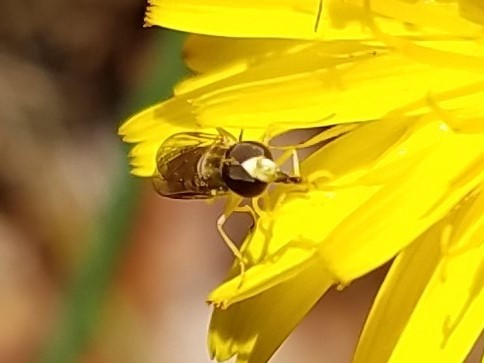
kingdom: Animalia
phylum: Arthropoda
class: Insecta
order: Diptera
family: Syrphidae
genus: Toxomerus
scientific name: Toxomerus marginatus
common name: Syrphid fly
